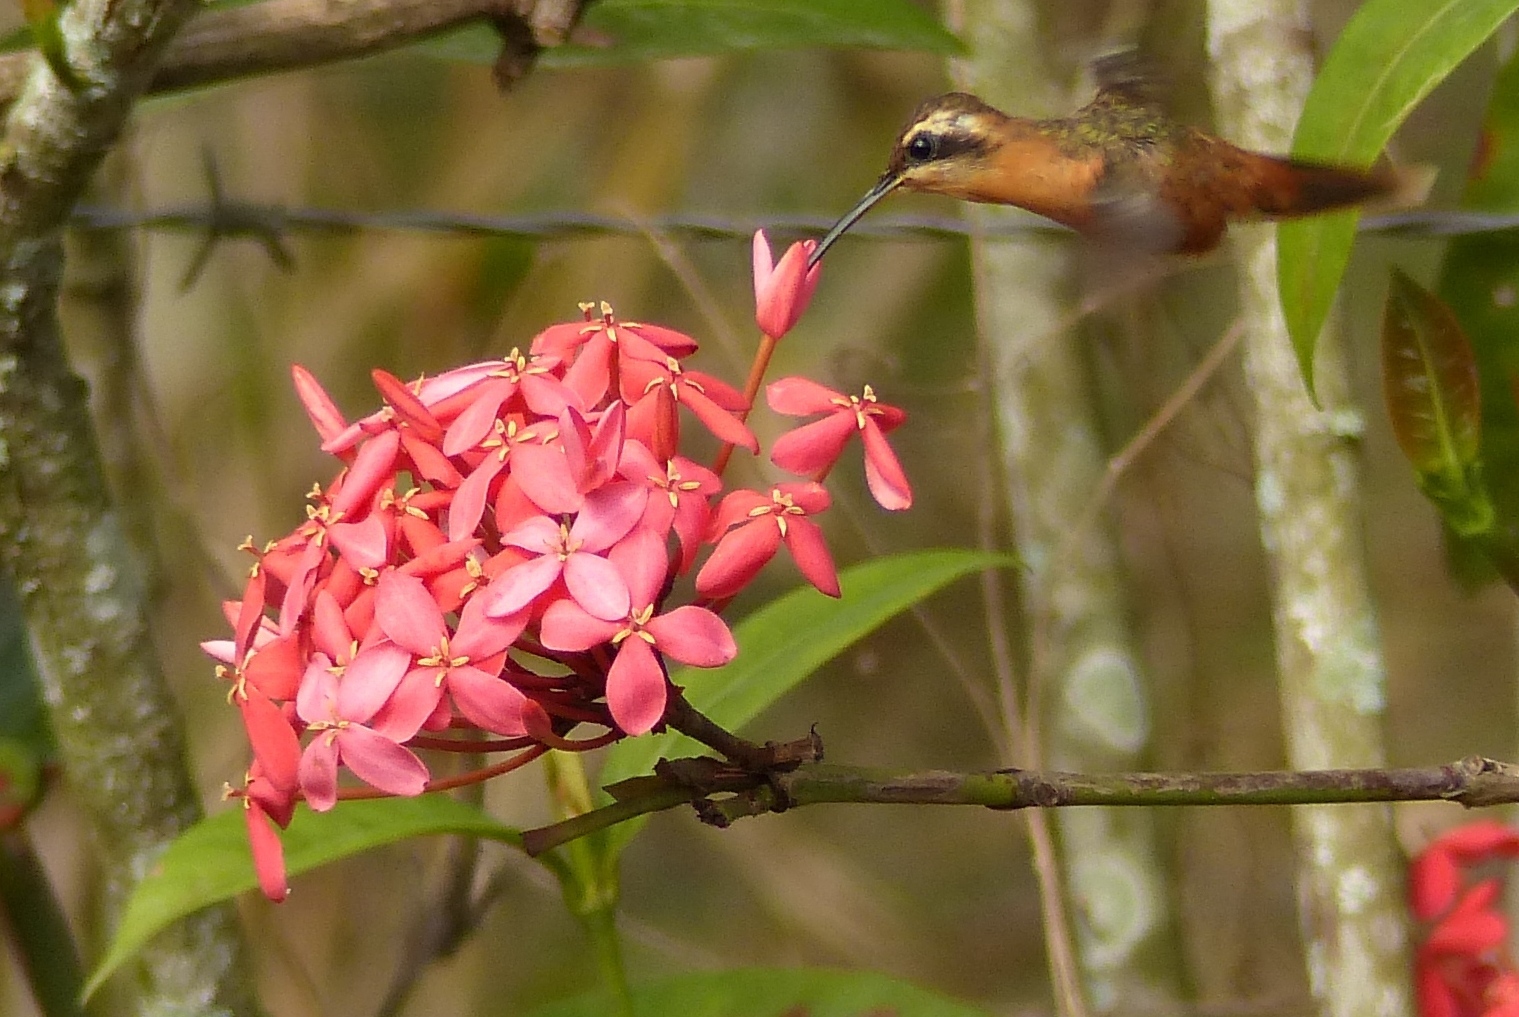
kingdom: Animalia
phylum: Chordata
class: Aves
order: Apodiformes
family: Trochilidae
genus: Phaethornis
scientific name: Phaethornis ruber
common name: Reddish hermit
